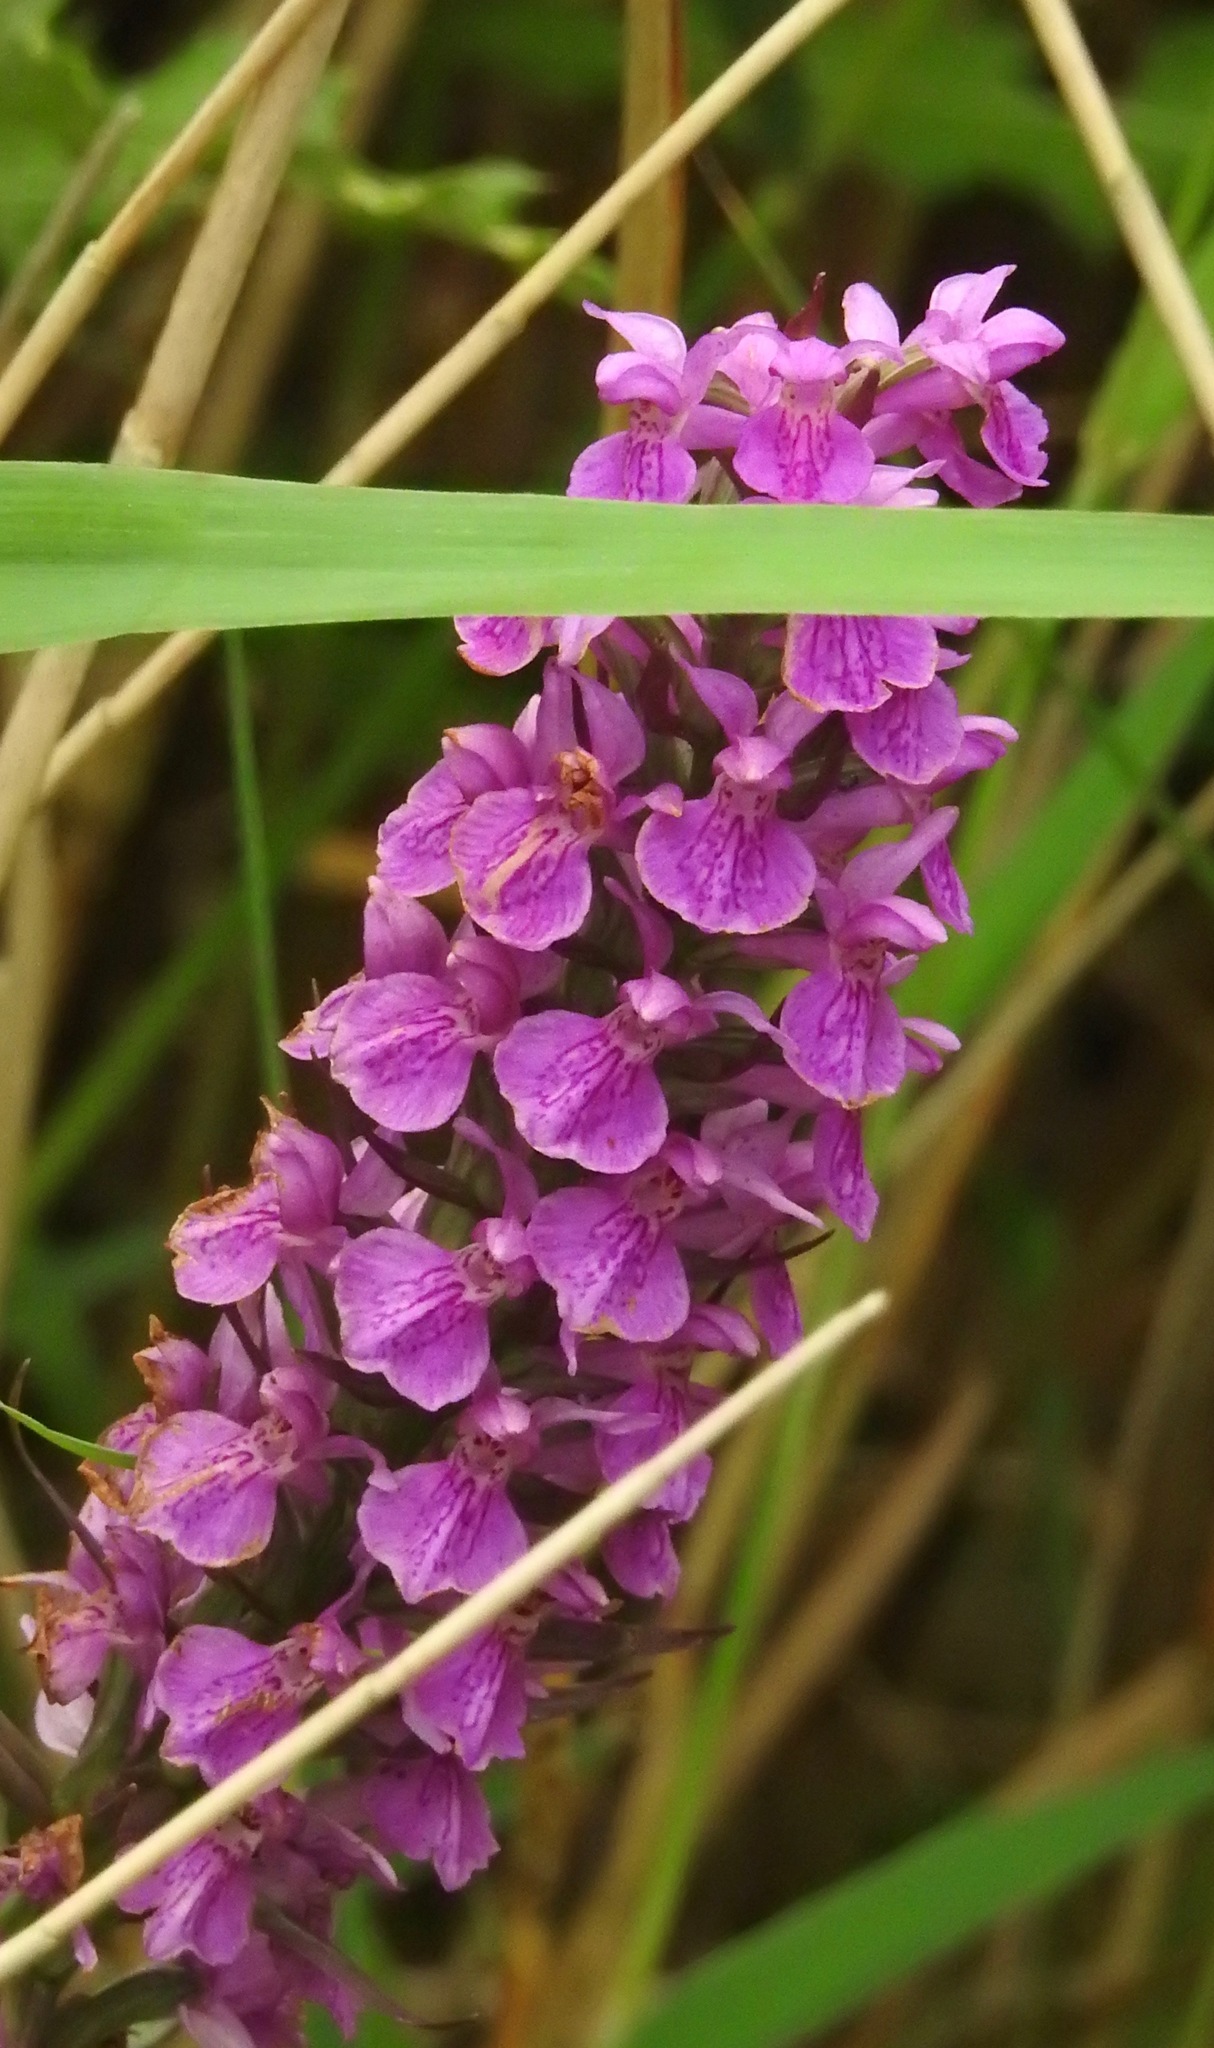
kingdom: Plantae
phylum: Tracheophyta
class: Liliopsida
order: Asparagales
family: Orchidaceae
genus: Dactylorhiza
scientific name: Dactylorhiza majalis
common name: Marsh orchid
